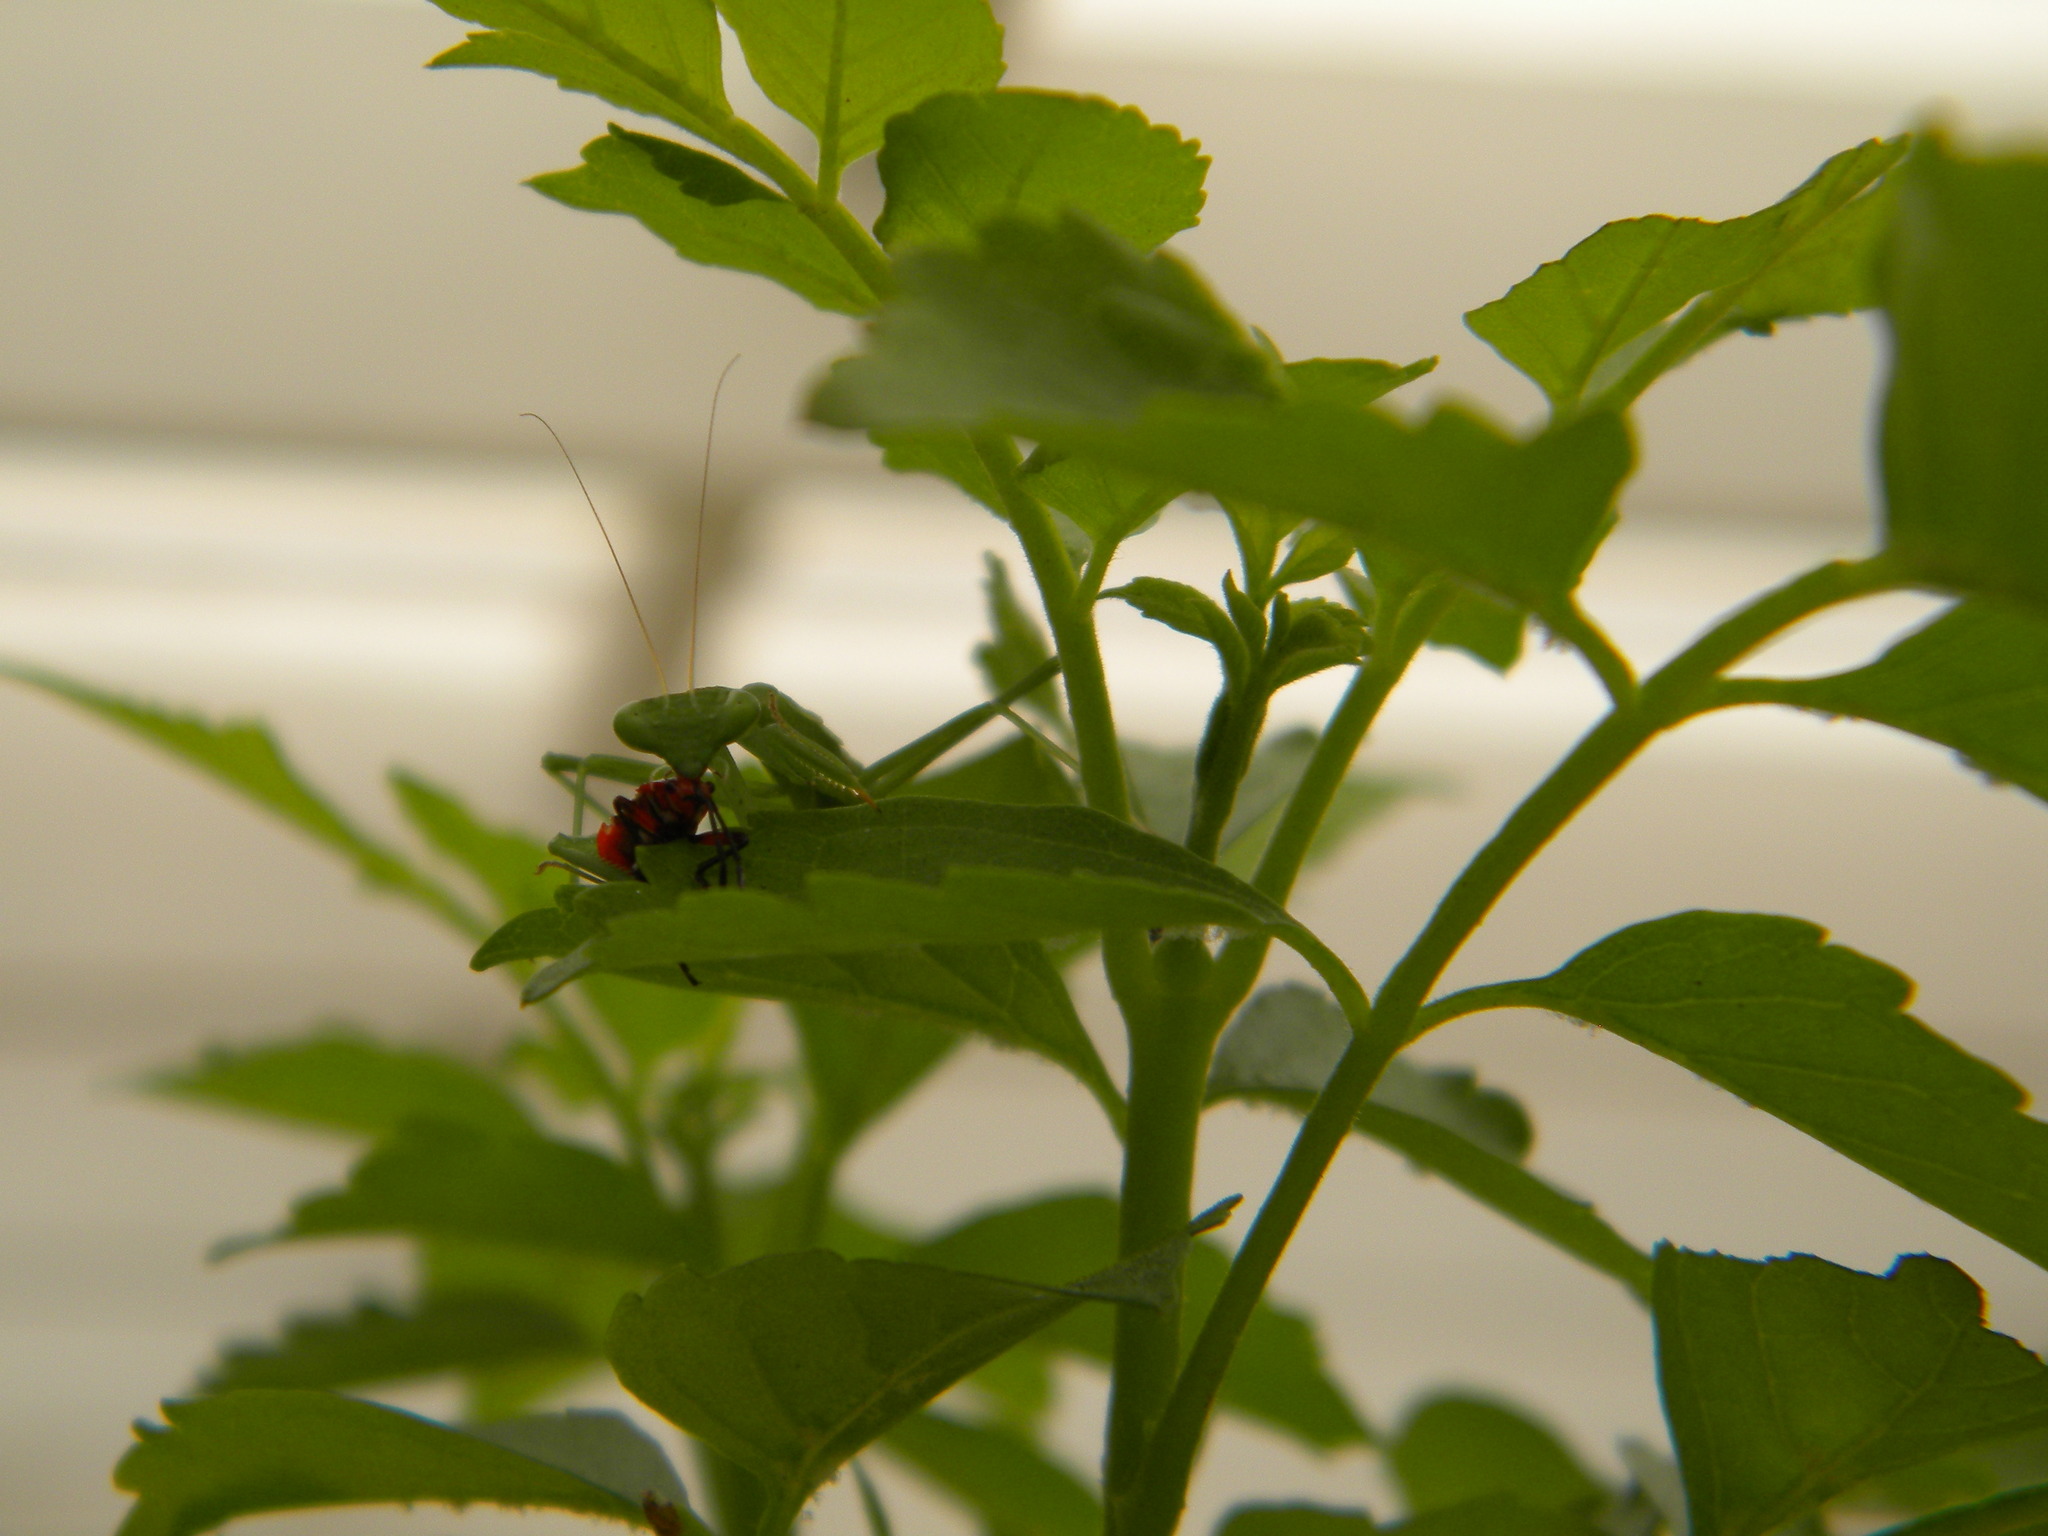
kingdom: Animalia
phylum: Arthropoda
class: Insecta
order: Hemiptera
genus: Cenaeus
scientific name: Cenaeus
